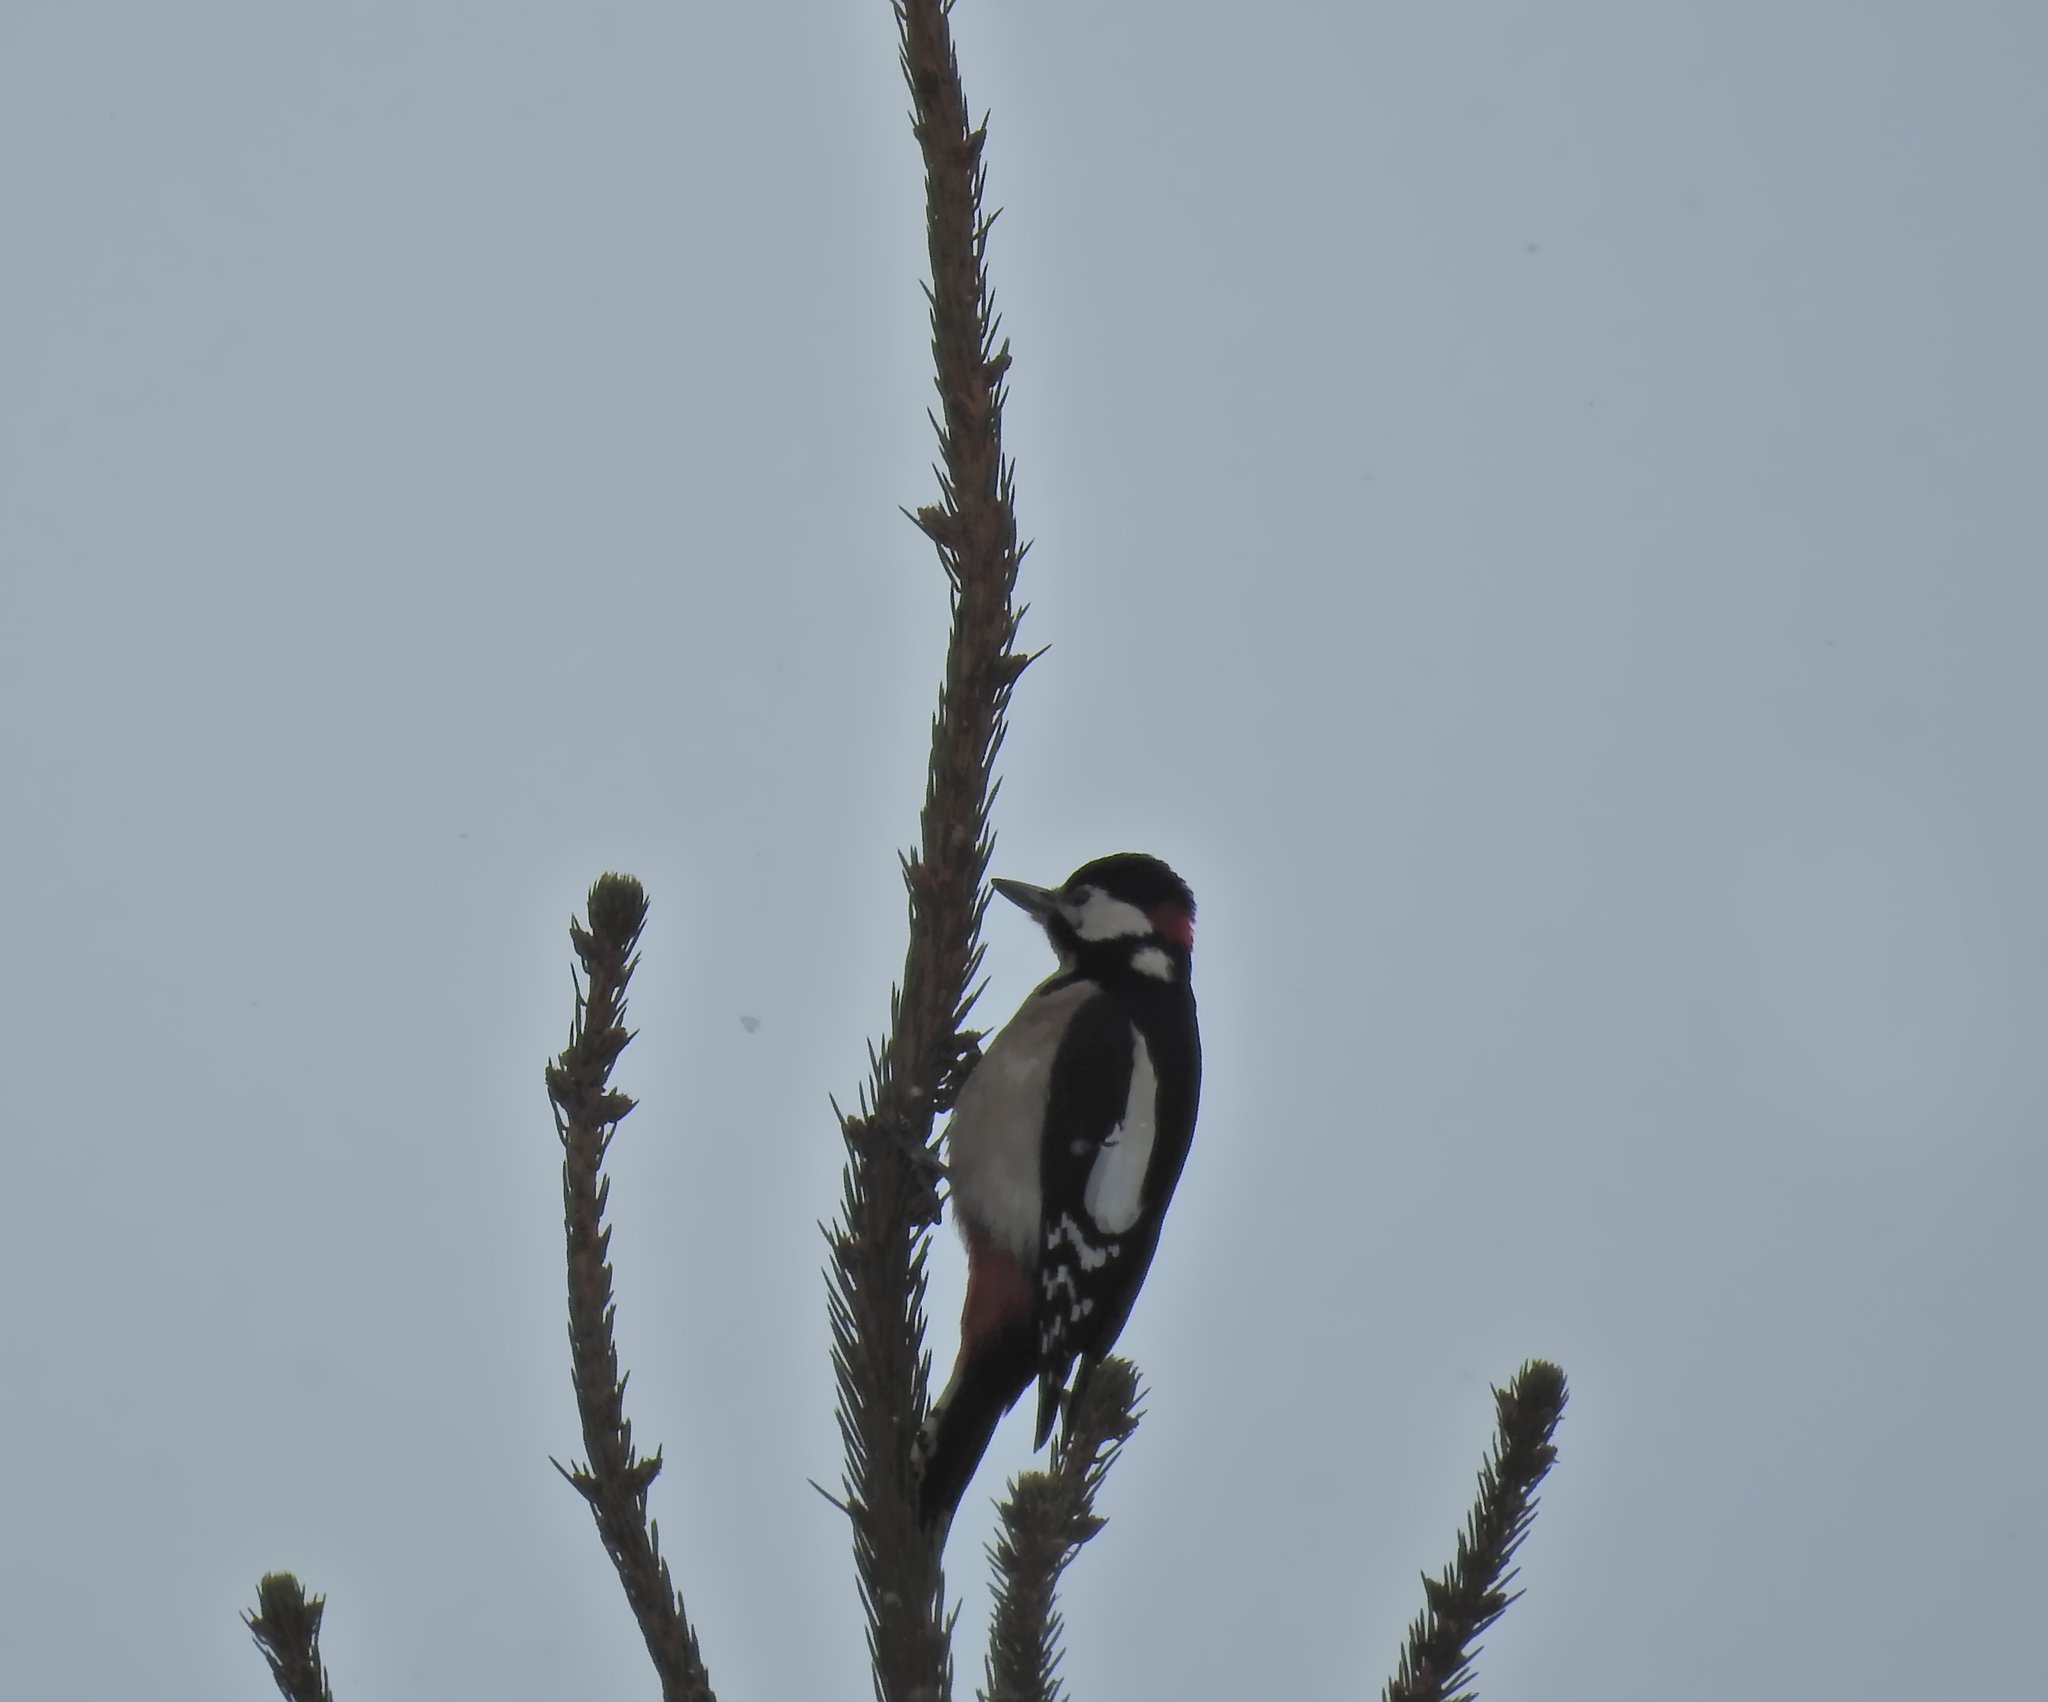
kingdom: Animalia
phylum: Chordata
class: Aves
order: Piciformes
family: Picidae
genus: Dendrocopos
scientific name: Dendrocopos major
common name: Great spotted woodpecker
